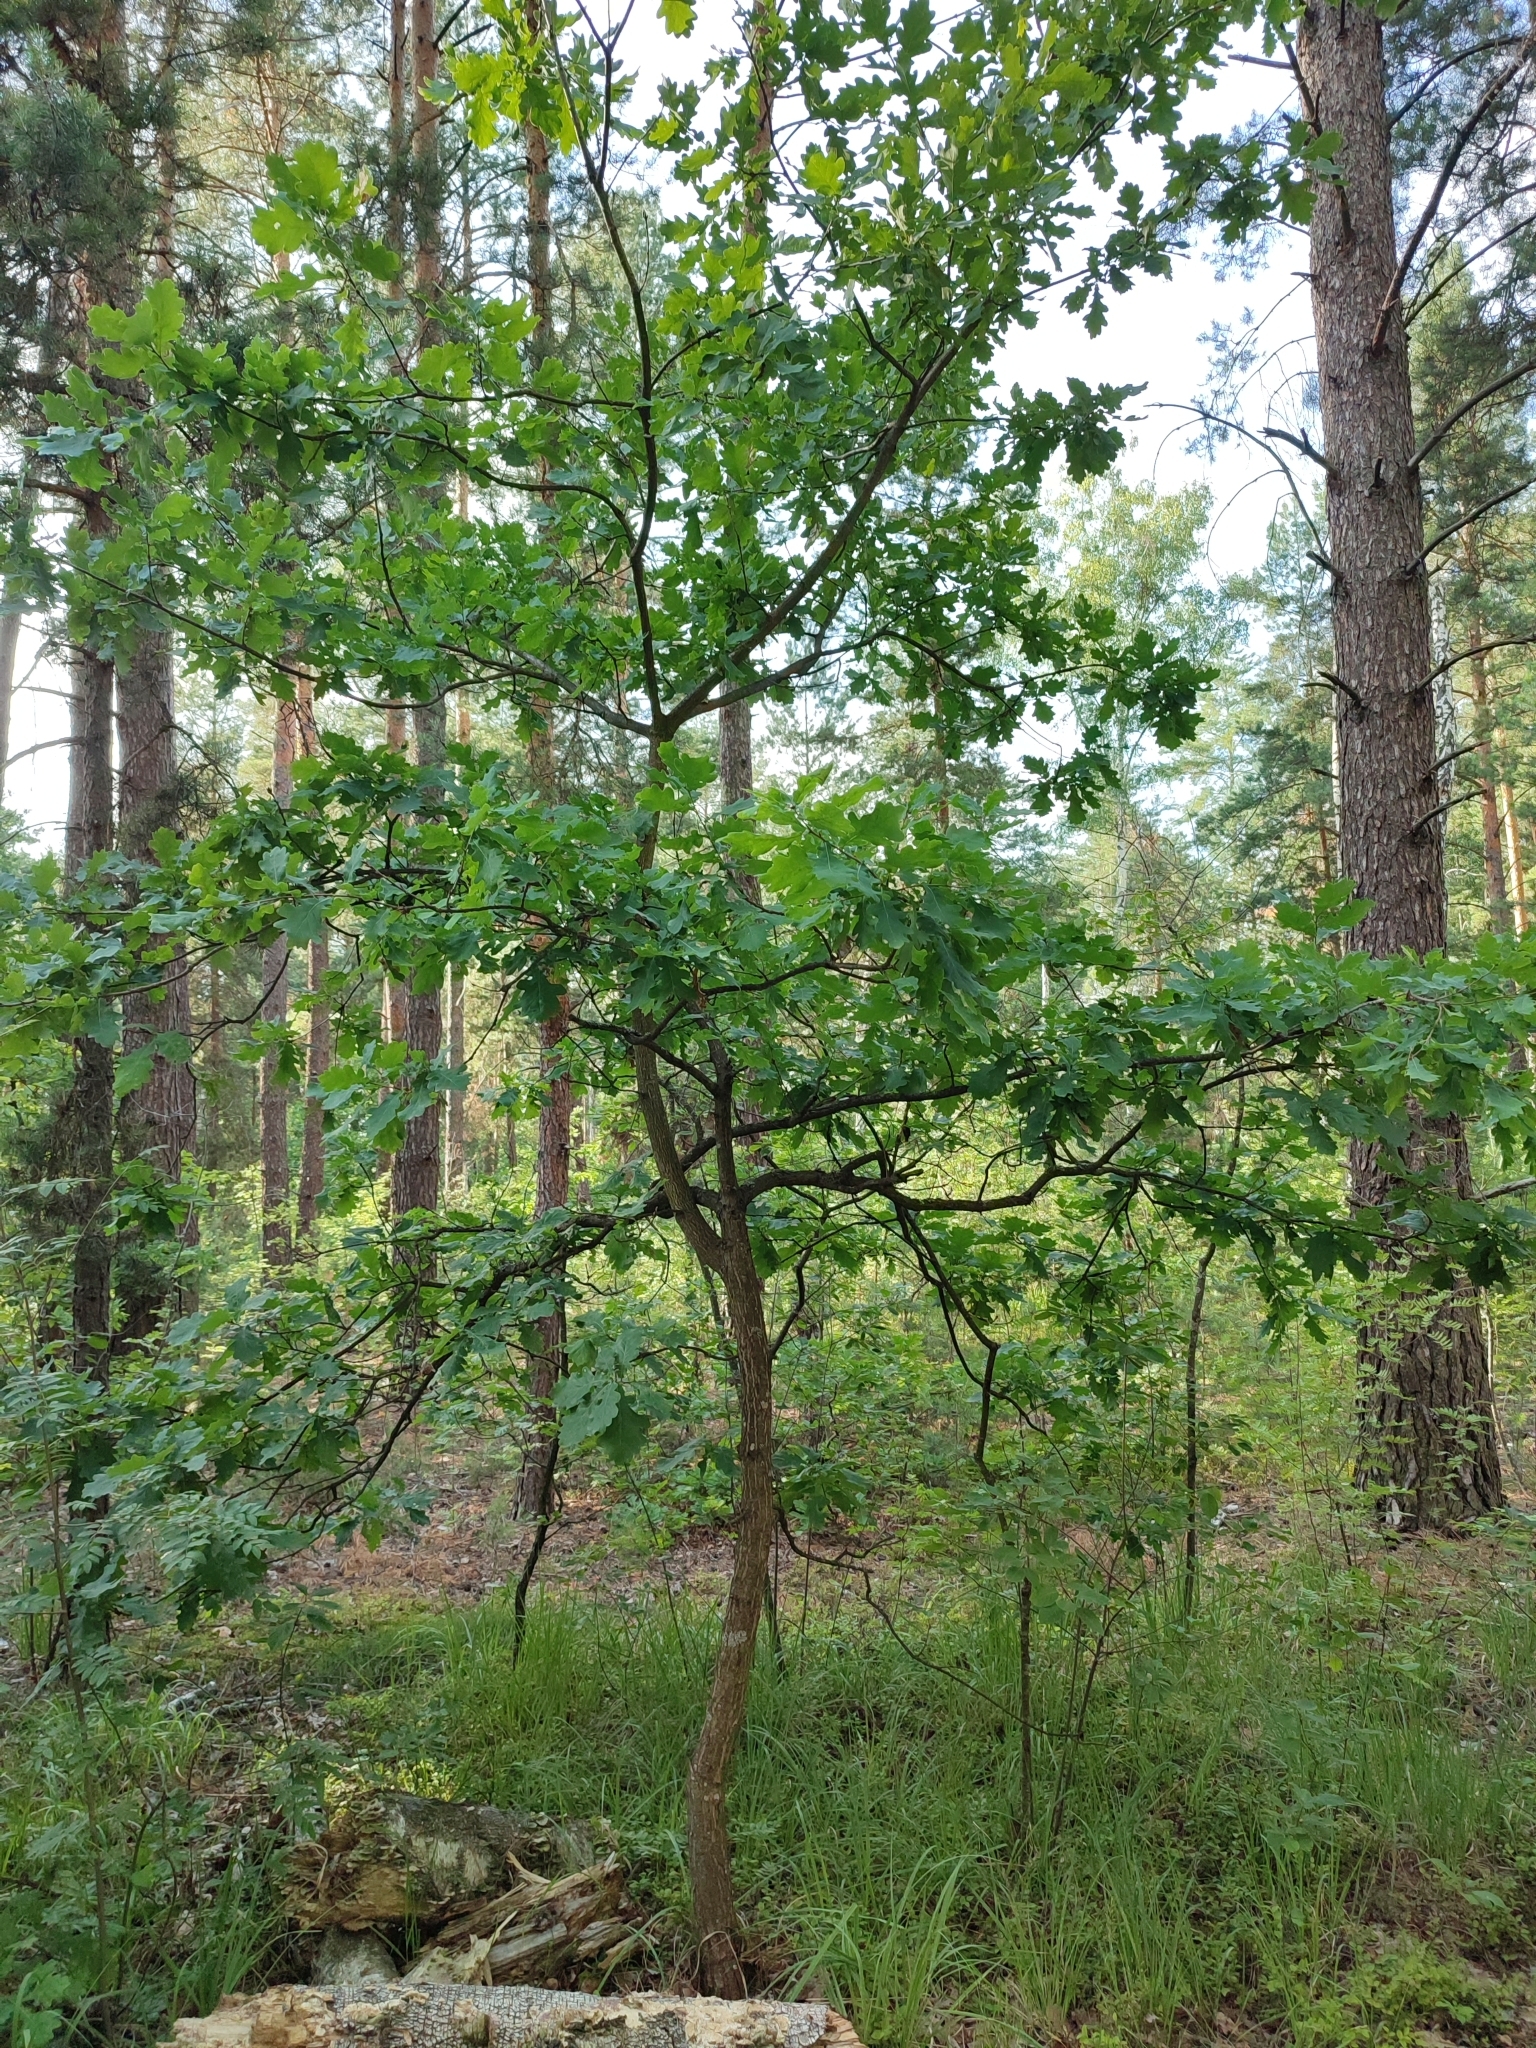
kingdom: Plantae
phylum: Tracheophyta
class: Magnoliopsida
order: Fagales
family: Fagaceae
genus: Quercus
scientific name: Quercus robur
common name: Pedunculate oak
